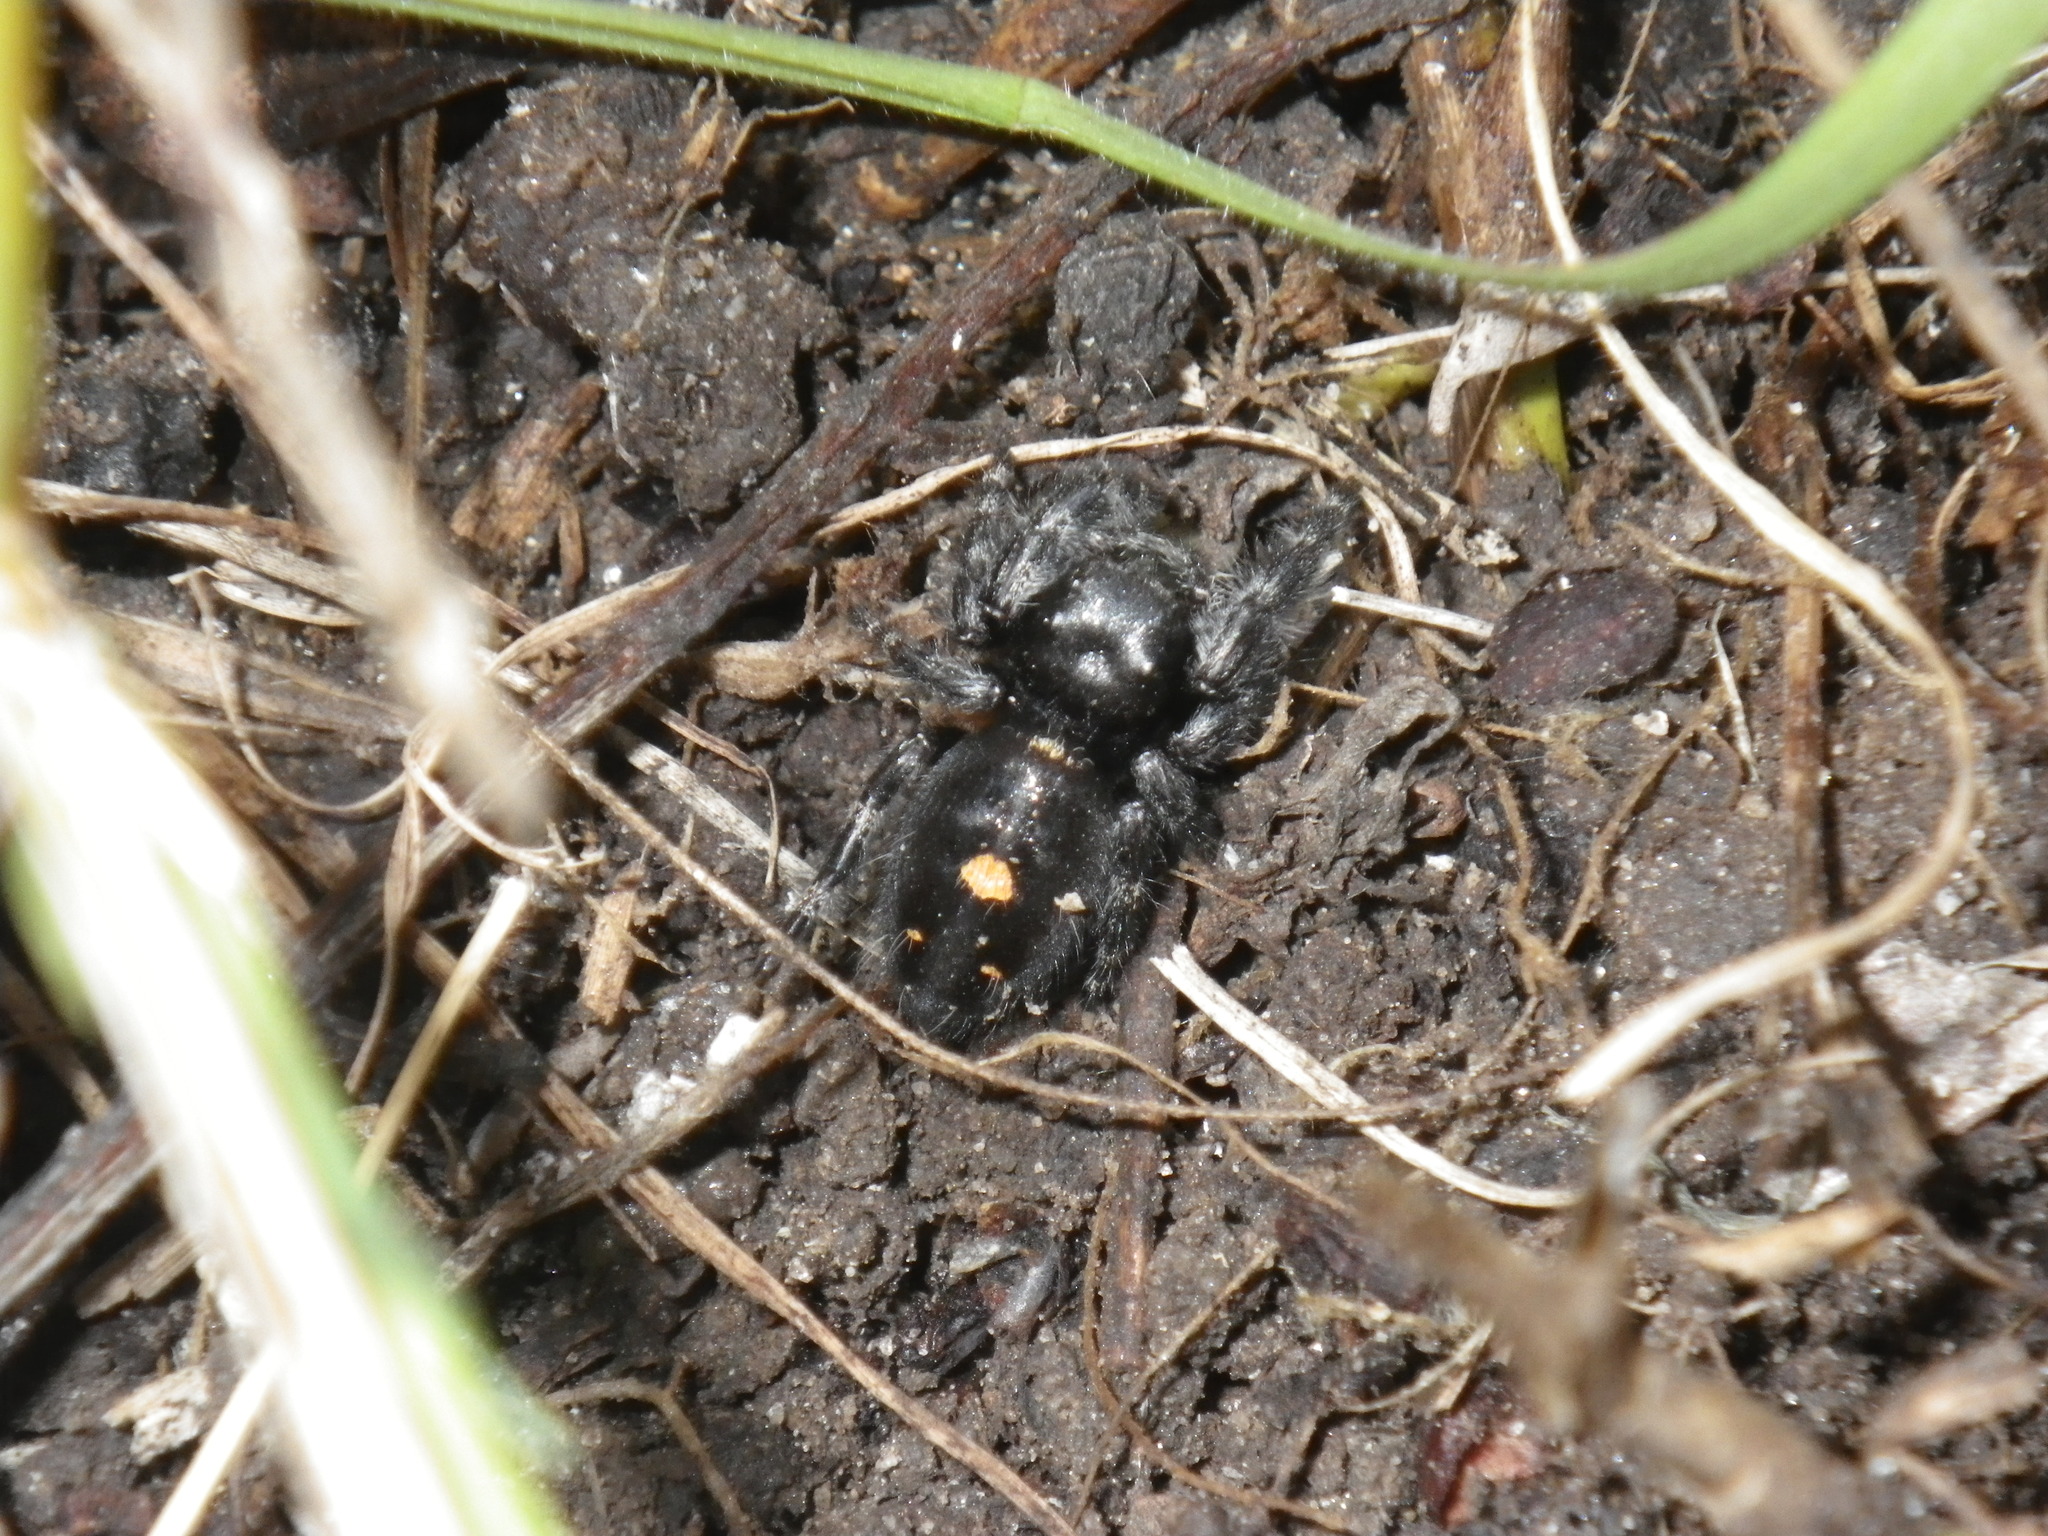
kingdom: Animalia
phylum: Arthropoda
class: Arachnida
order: Araneae
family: Salticidae
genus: Phidippus
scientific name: Phidippus audax
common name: Bold jumper
